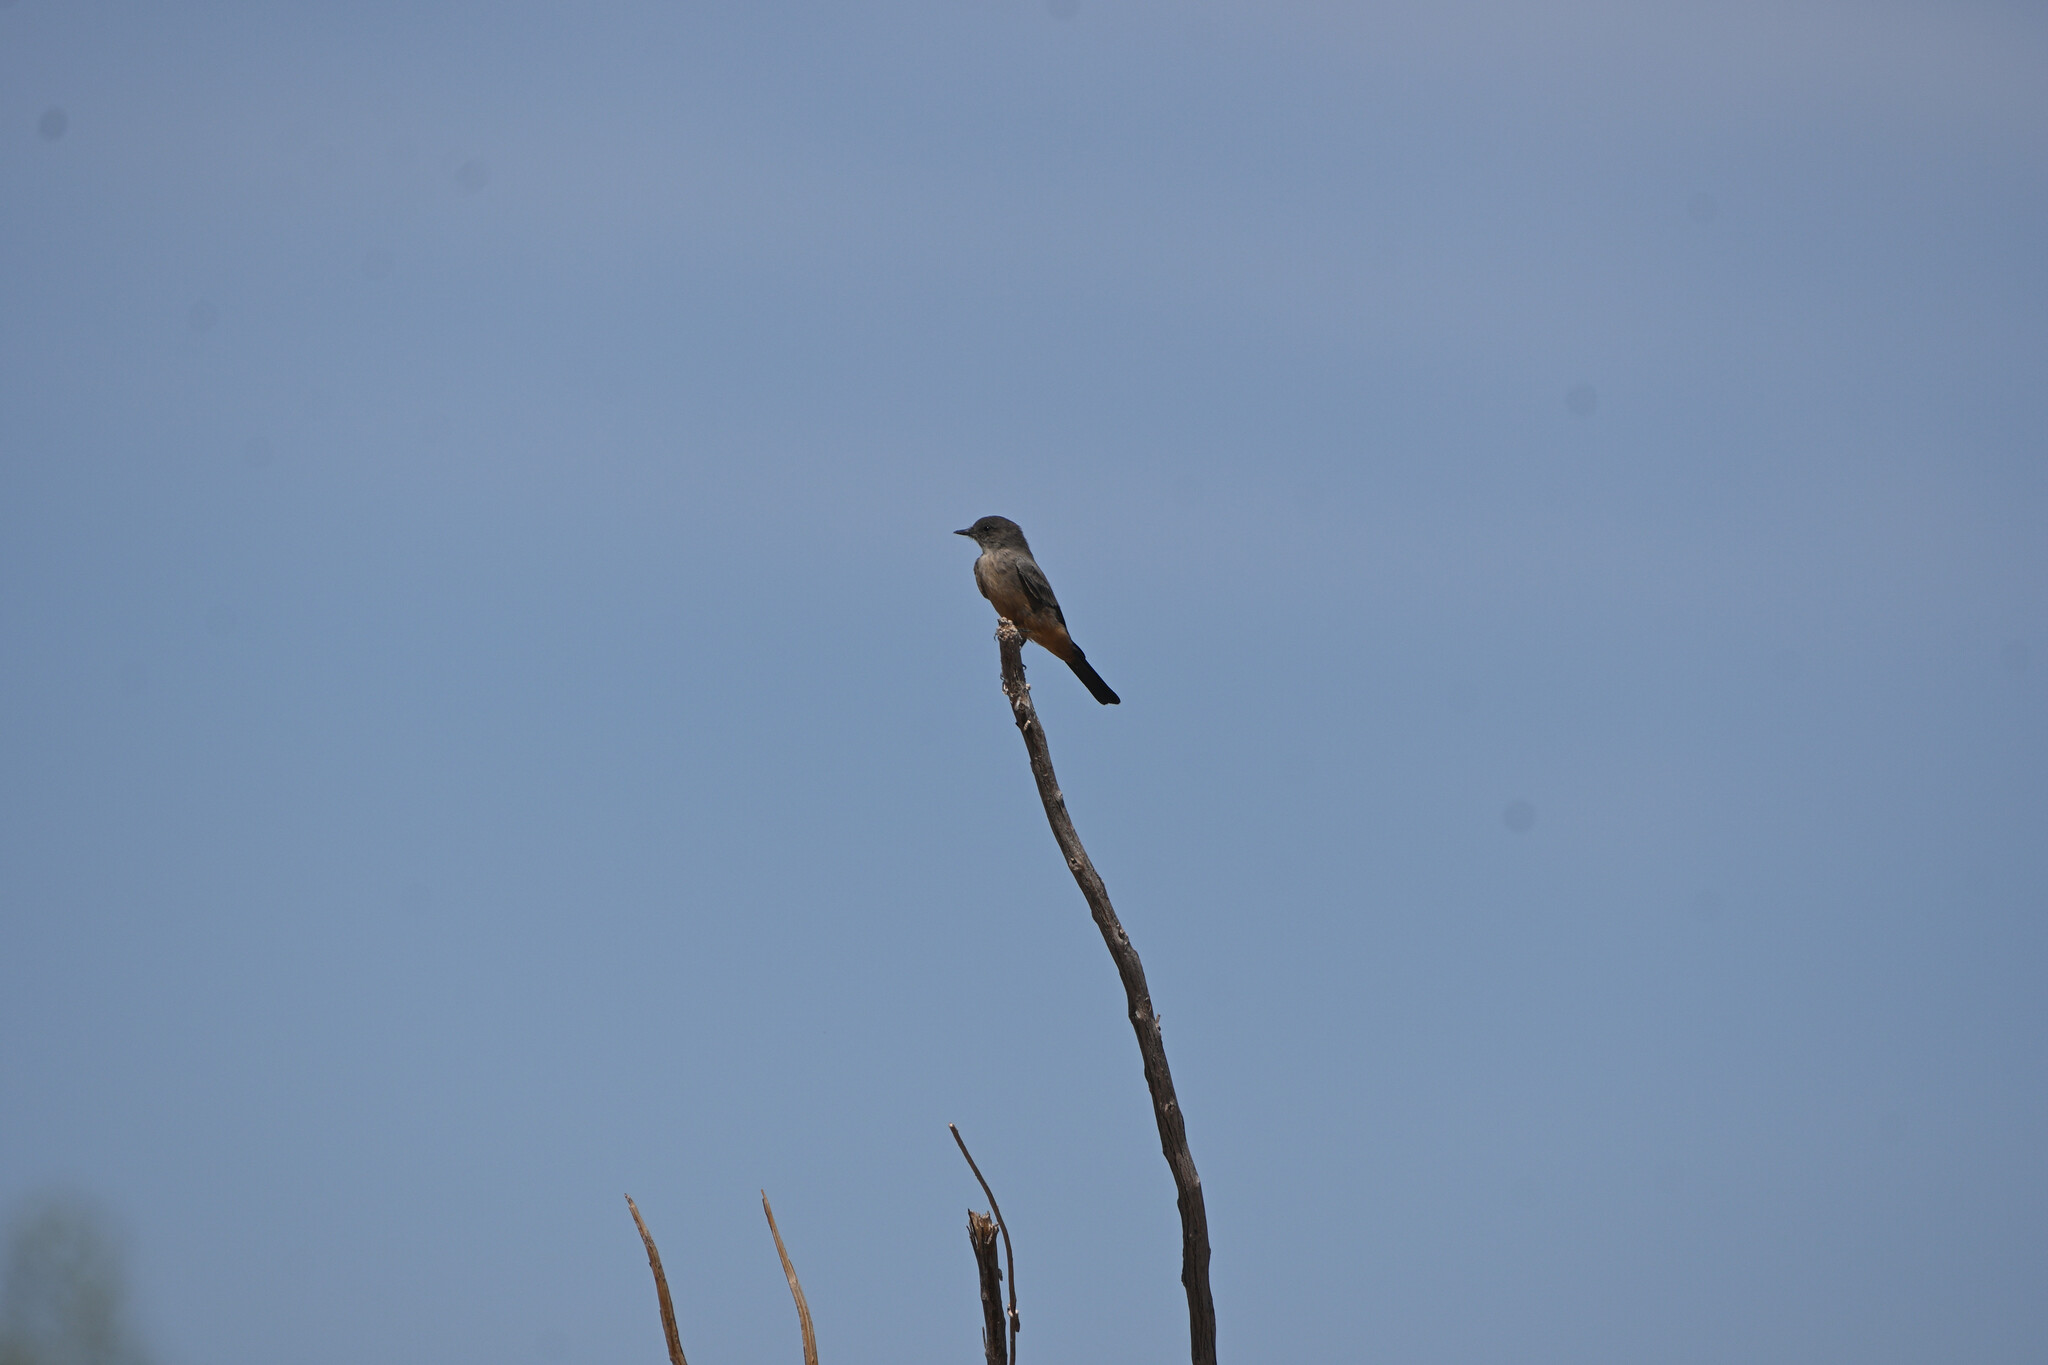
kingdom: Animalia
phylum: Chordata
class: Aves
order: Passeriformes
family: Tyrannidae
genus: Sayornis
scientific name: Sayornis saya
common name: Say's phoebe
